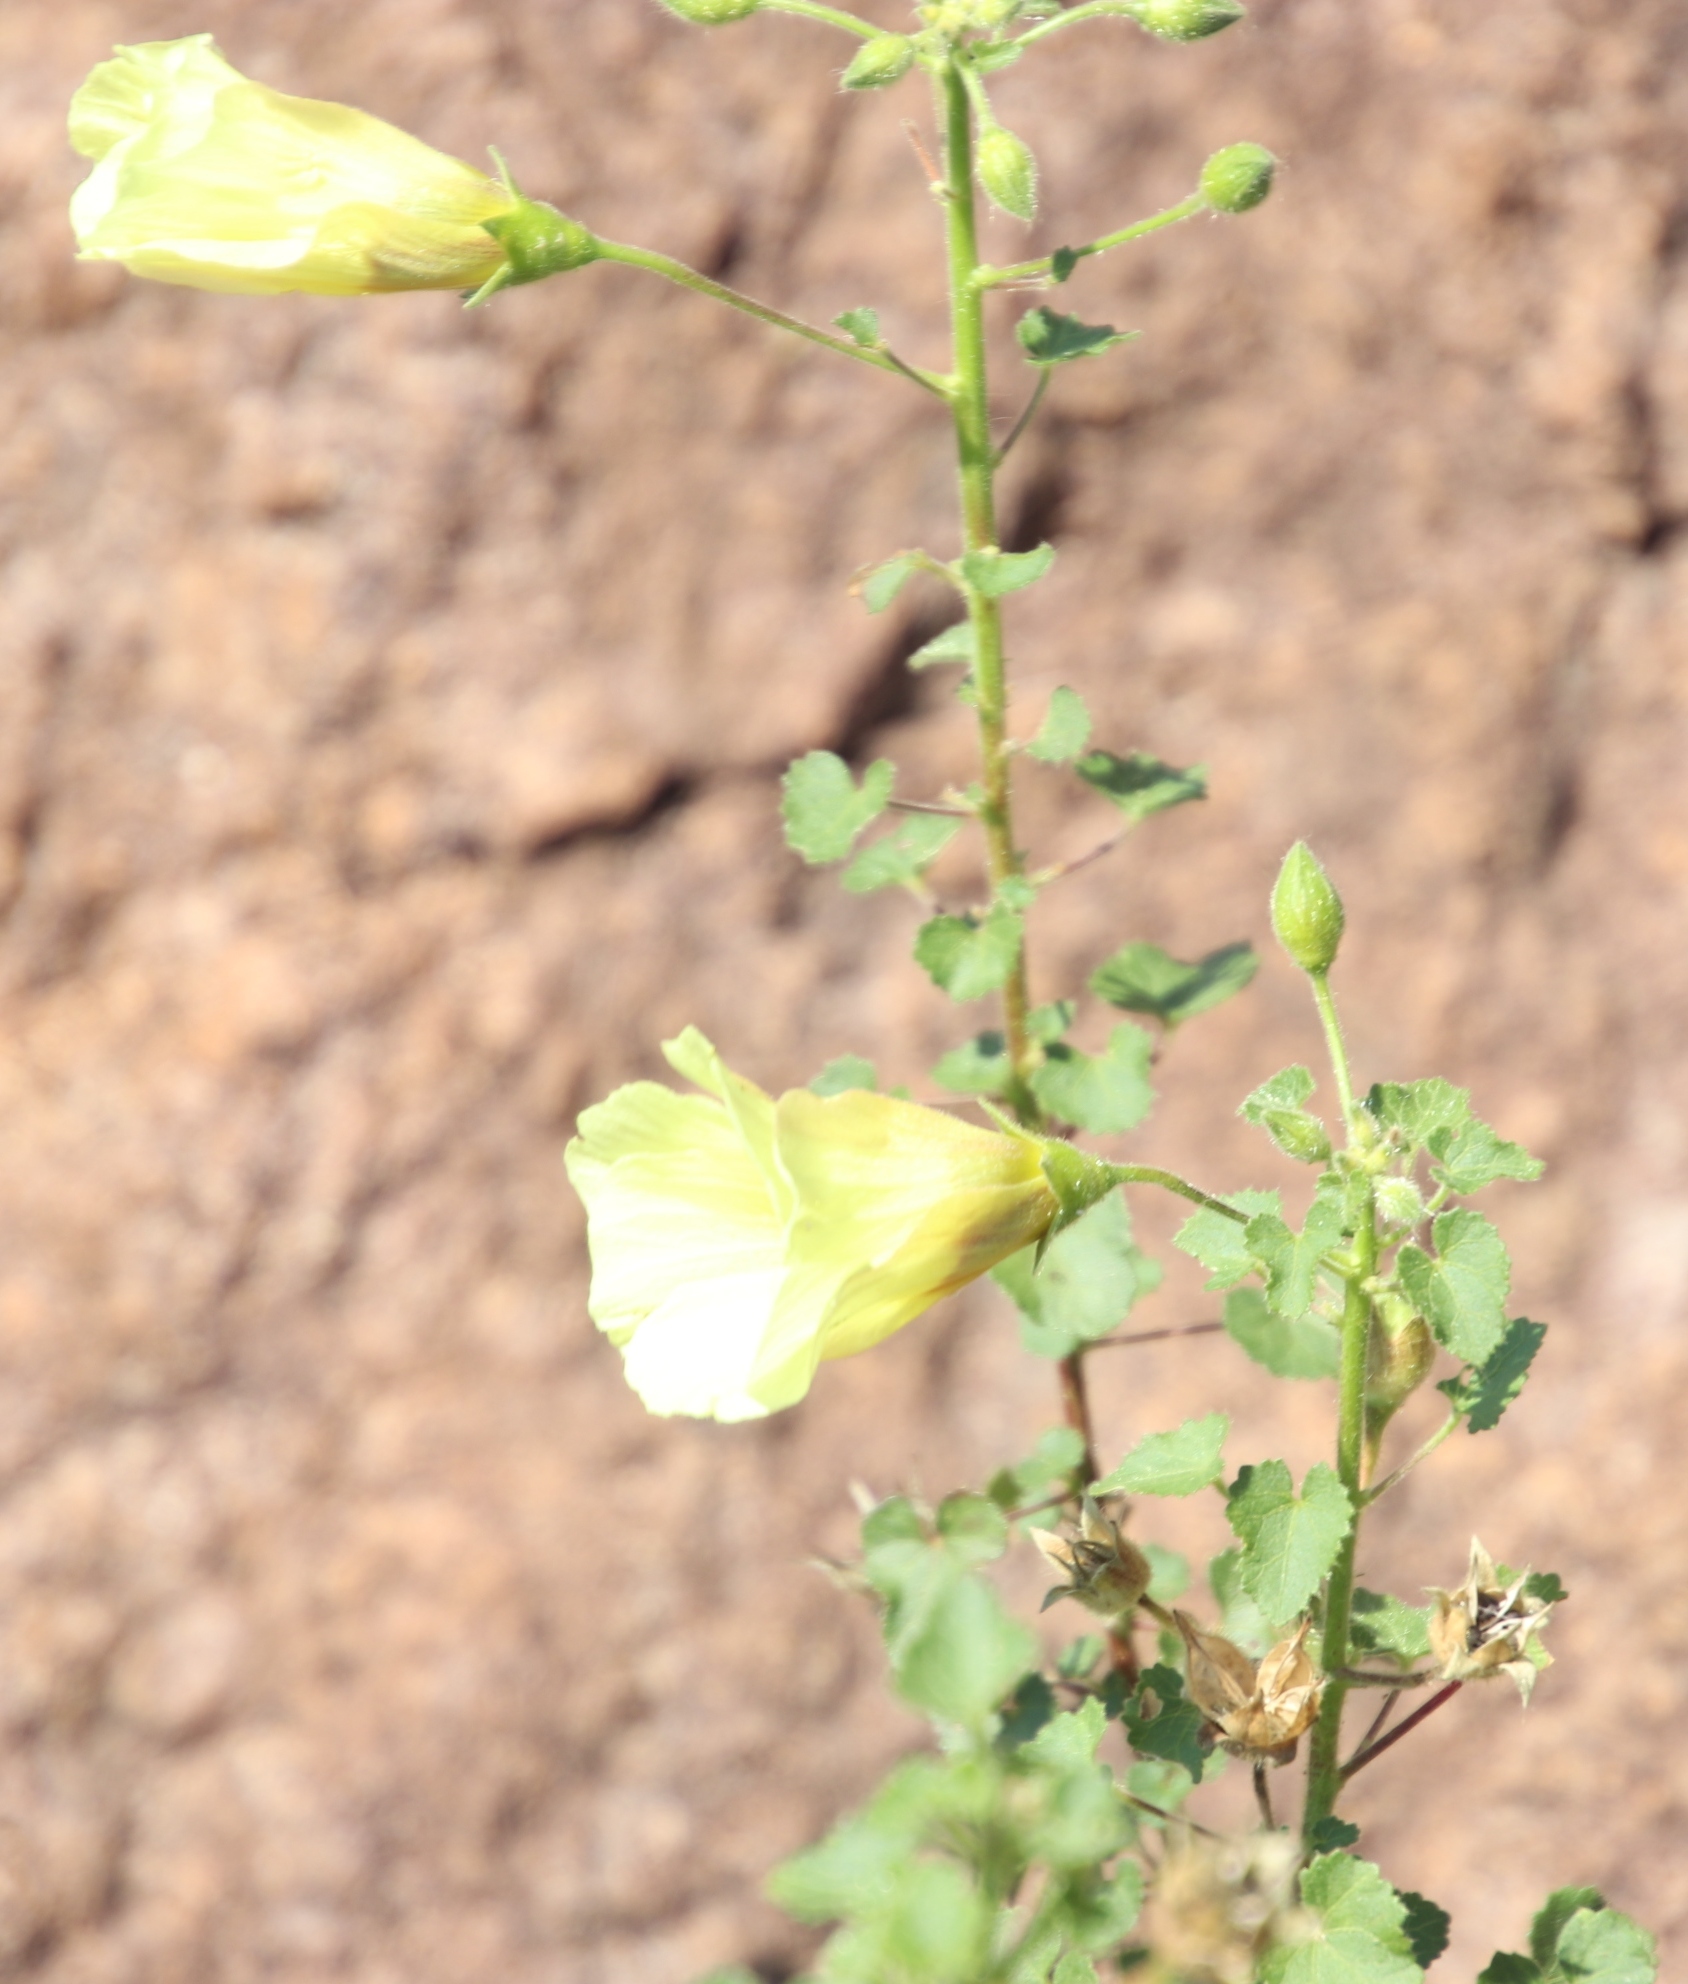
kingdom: Plantae
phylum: Tracheophyta
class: Magnoliopsida
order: Malvales
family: Malvaceae
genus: Hibiscus
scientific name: Hibiscus engleri
